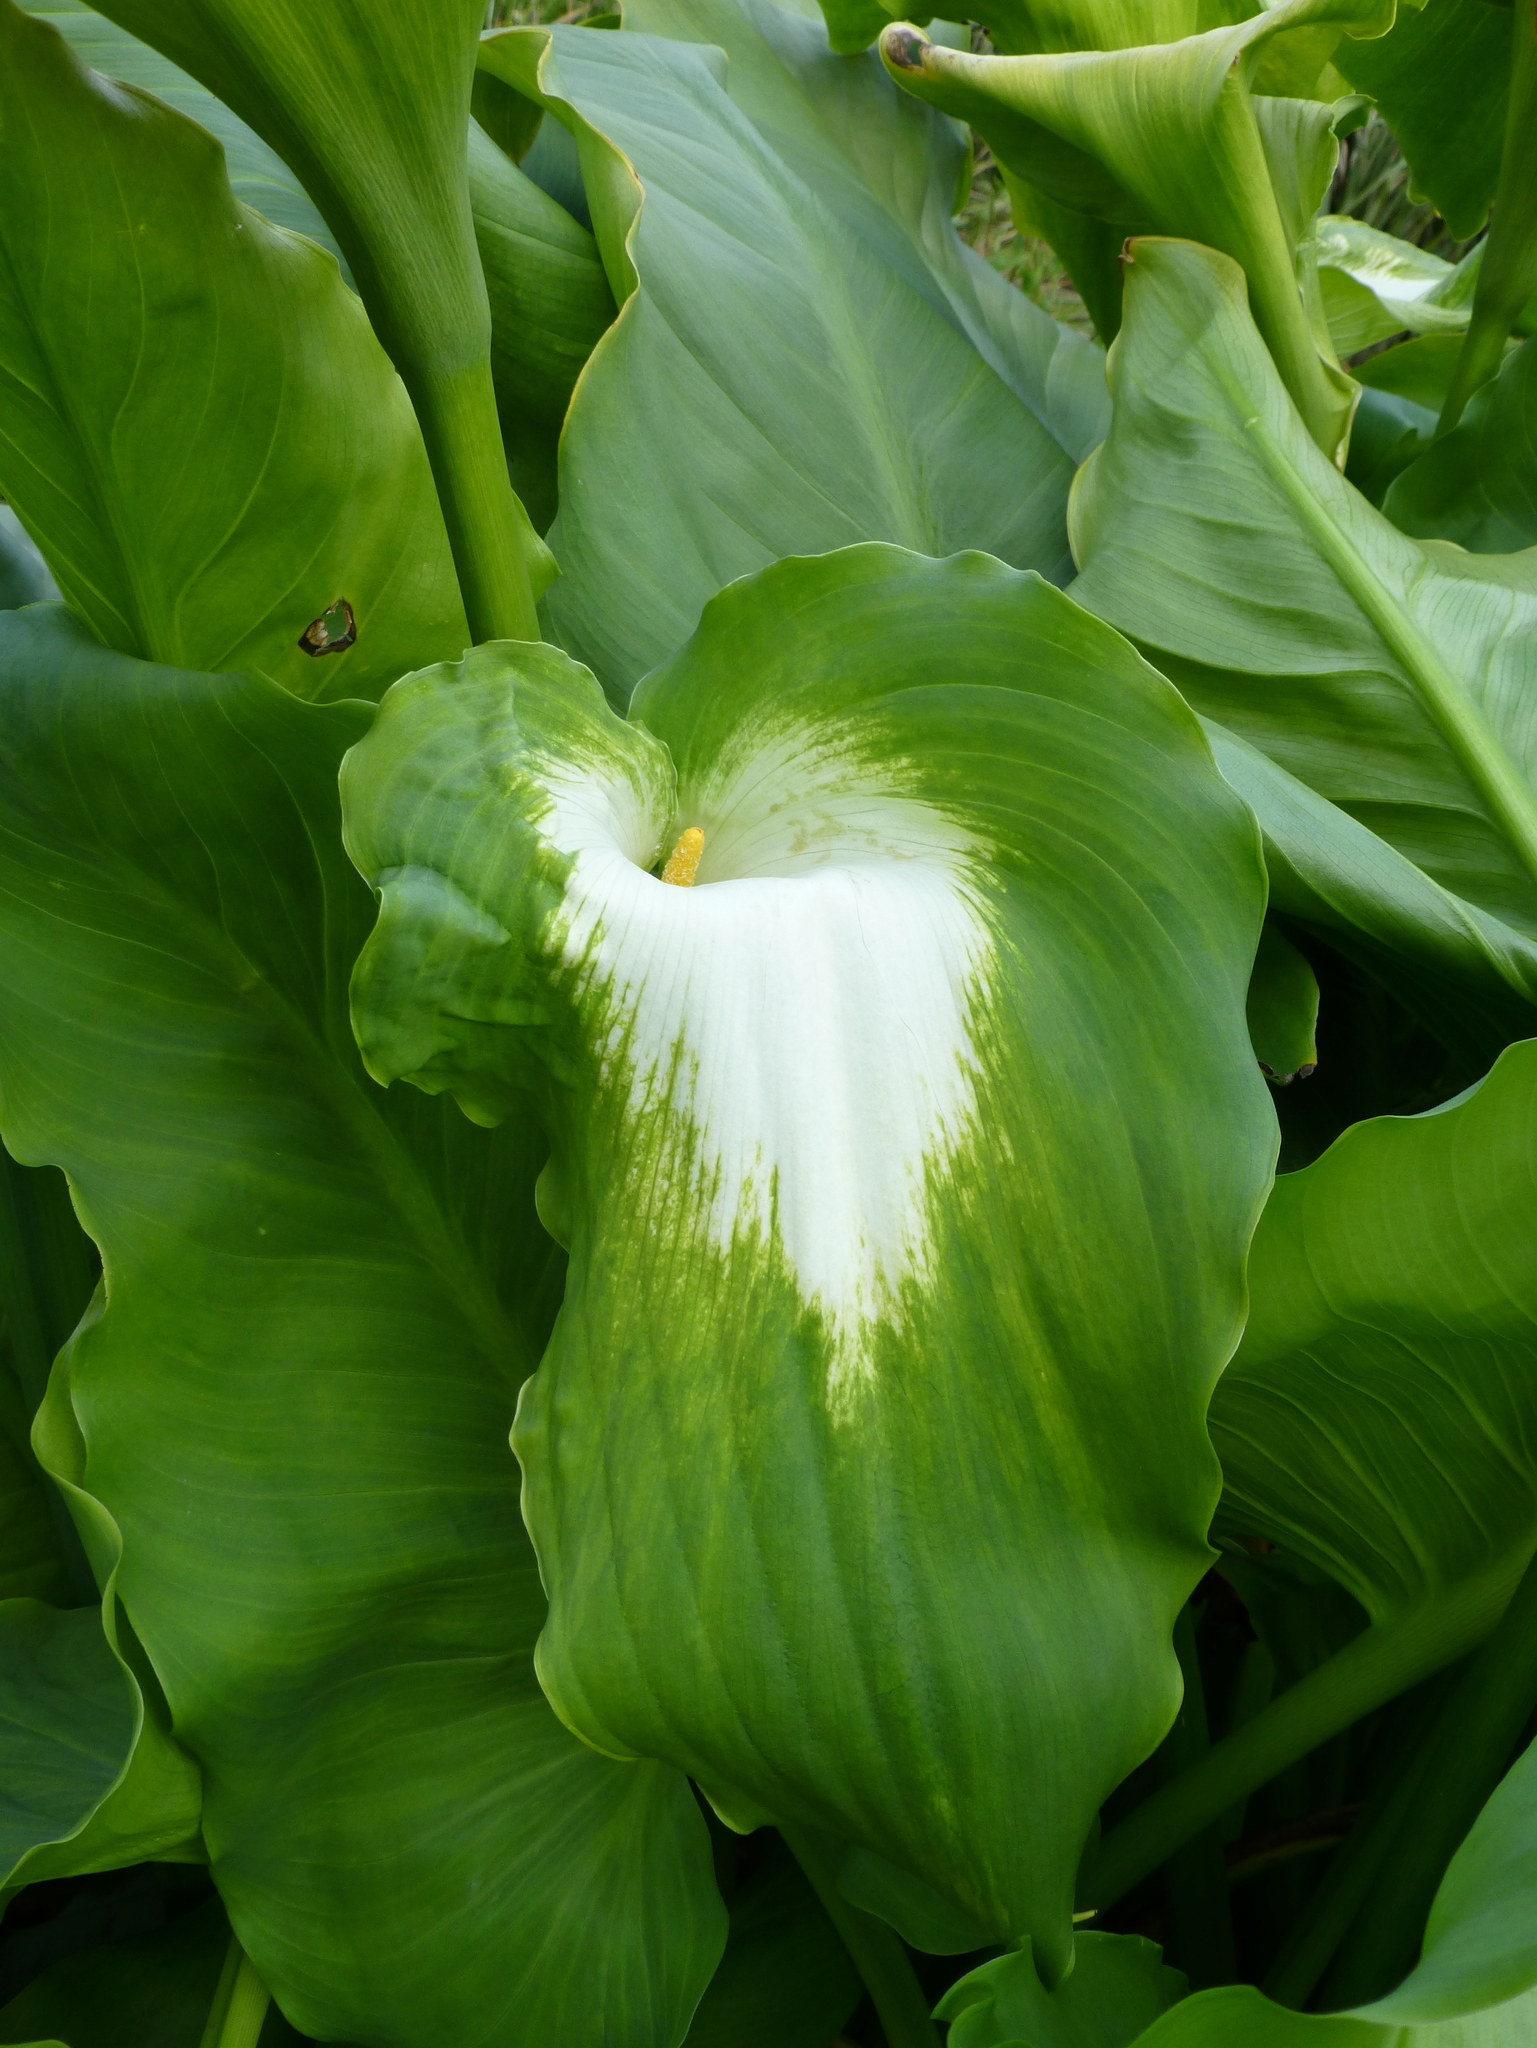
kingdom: Plantae
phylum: Tracheophyta
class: Liliopsida
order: Alismatales
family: Araceae
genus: Zantedeschia
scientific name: Zantedeschia aethiopica
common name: Altar-lily
